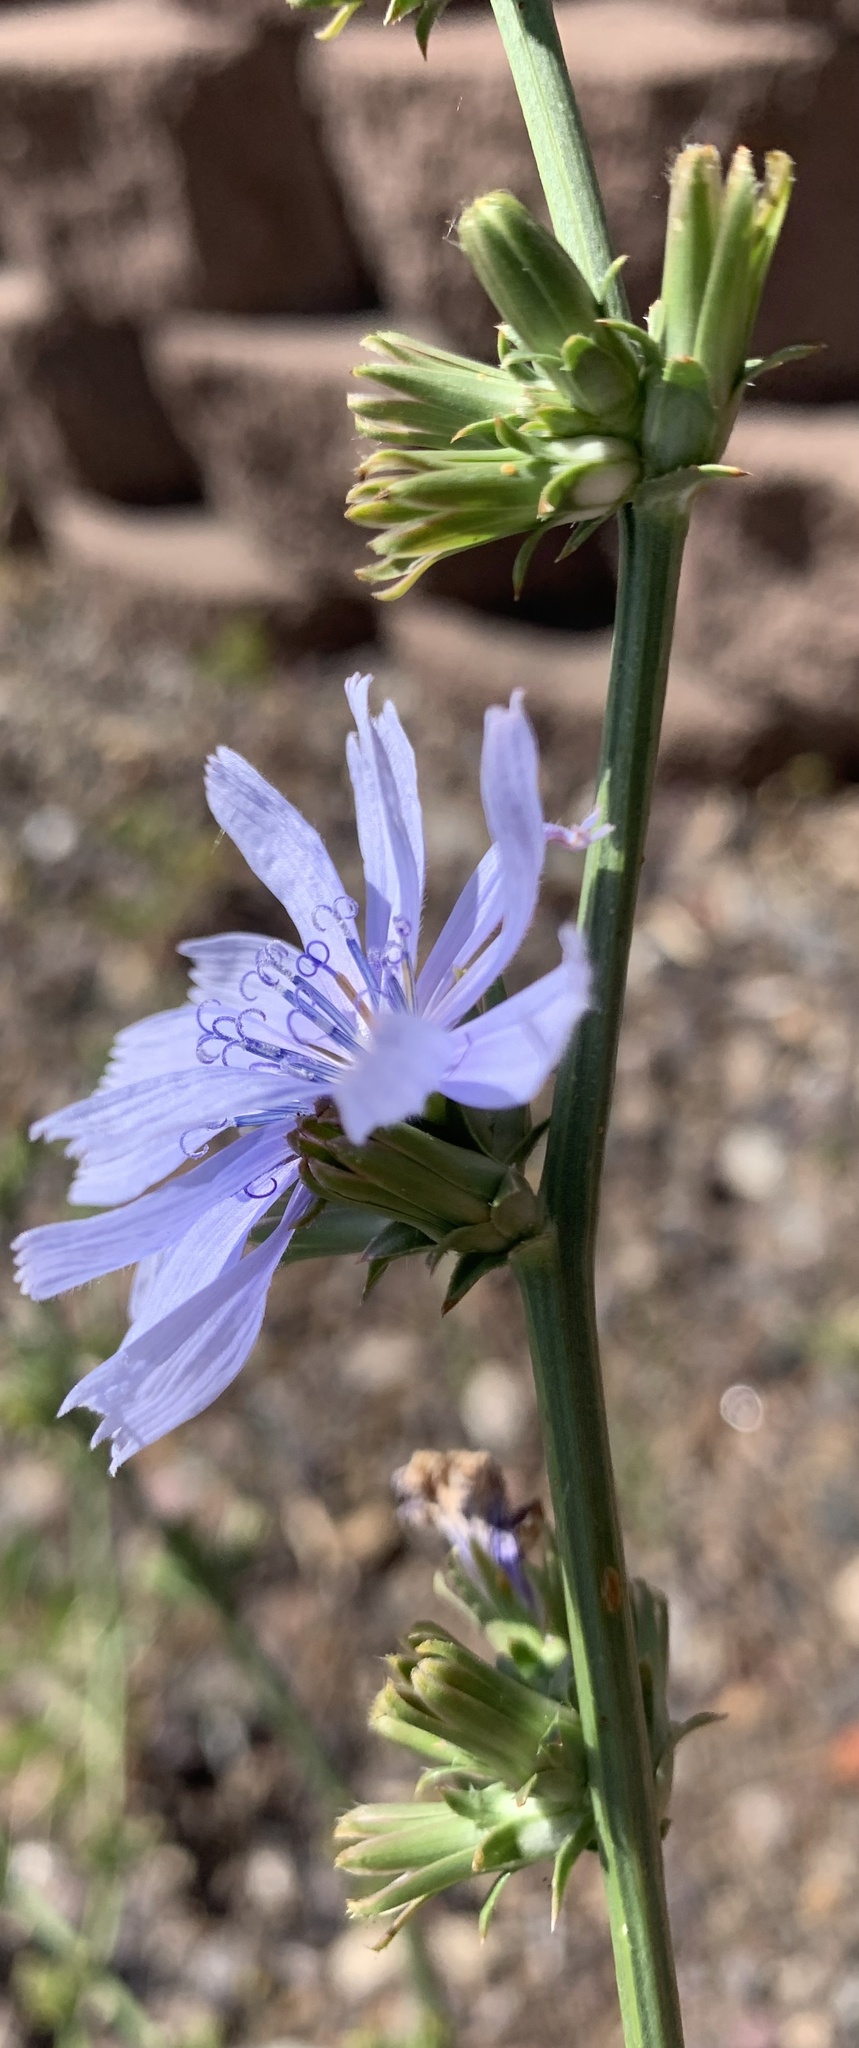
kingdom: Plantae
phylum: Tracheophyta
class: Magnoliopsida
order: Asterales
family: Asteraceae
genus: Cichorium
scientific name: Cichorium intybus
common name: Chicory
